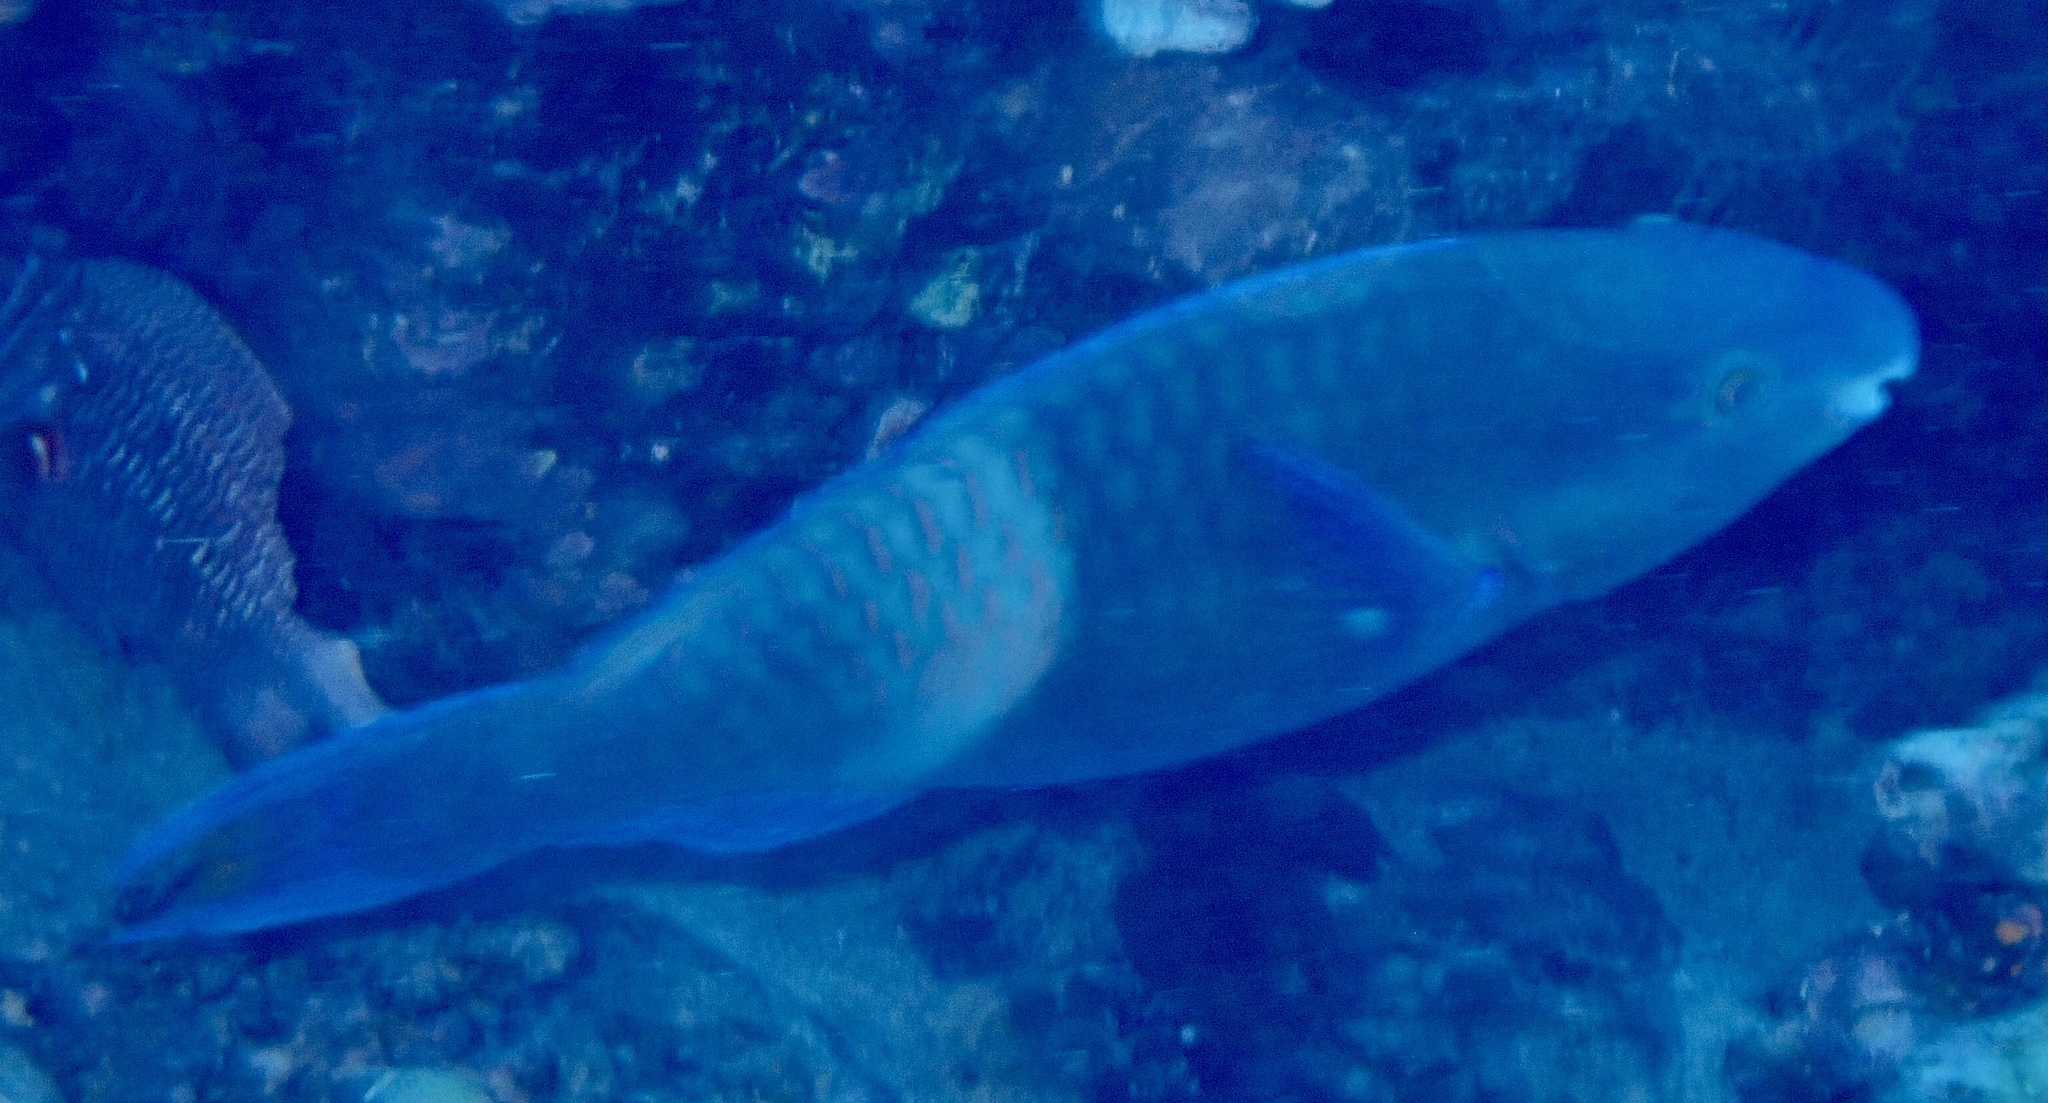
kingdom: Animalia
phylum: Chordata
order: Perciformes
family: Scaridae
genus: Scarus
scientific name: Scarus fuscopurpureus
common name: Purple-brown parrotfish
